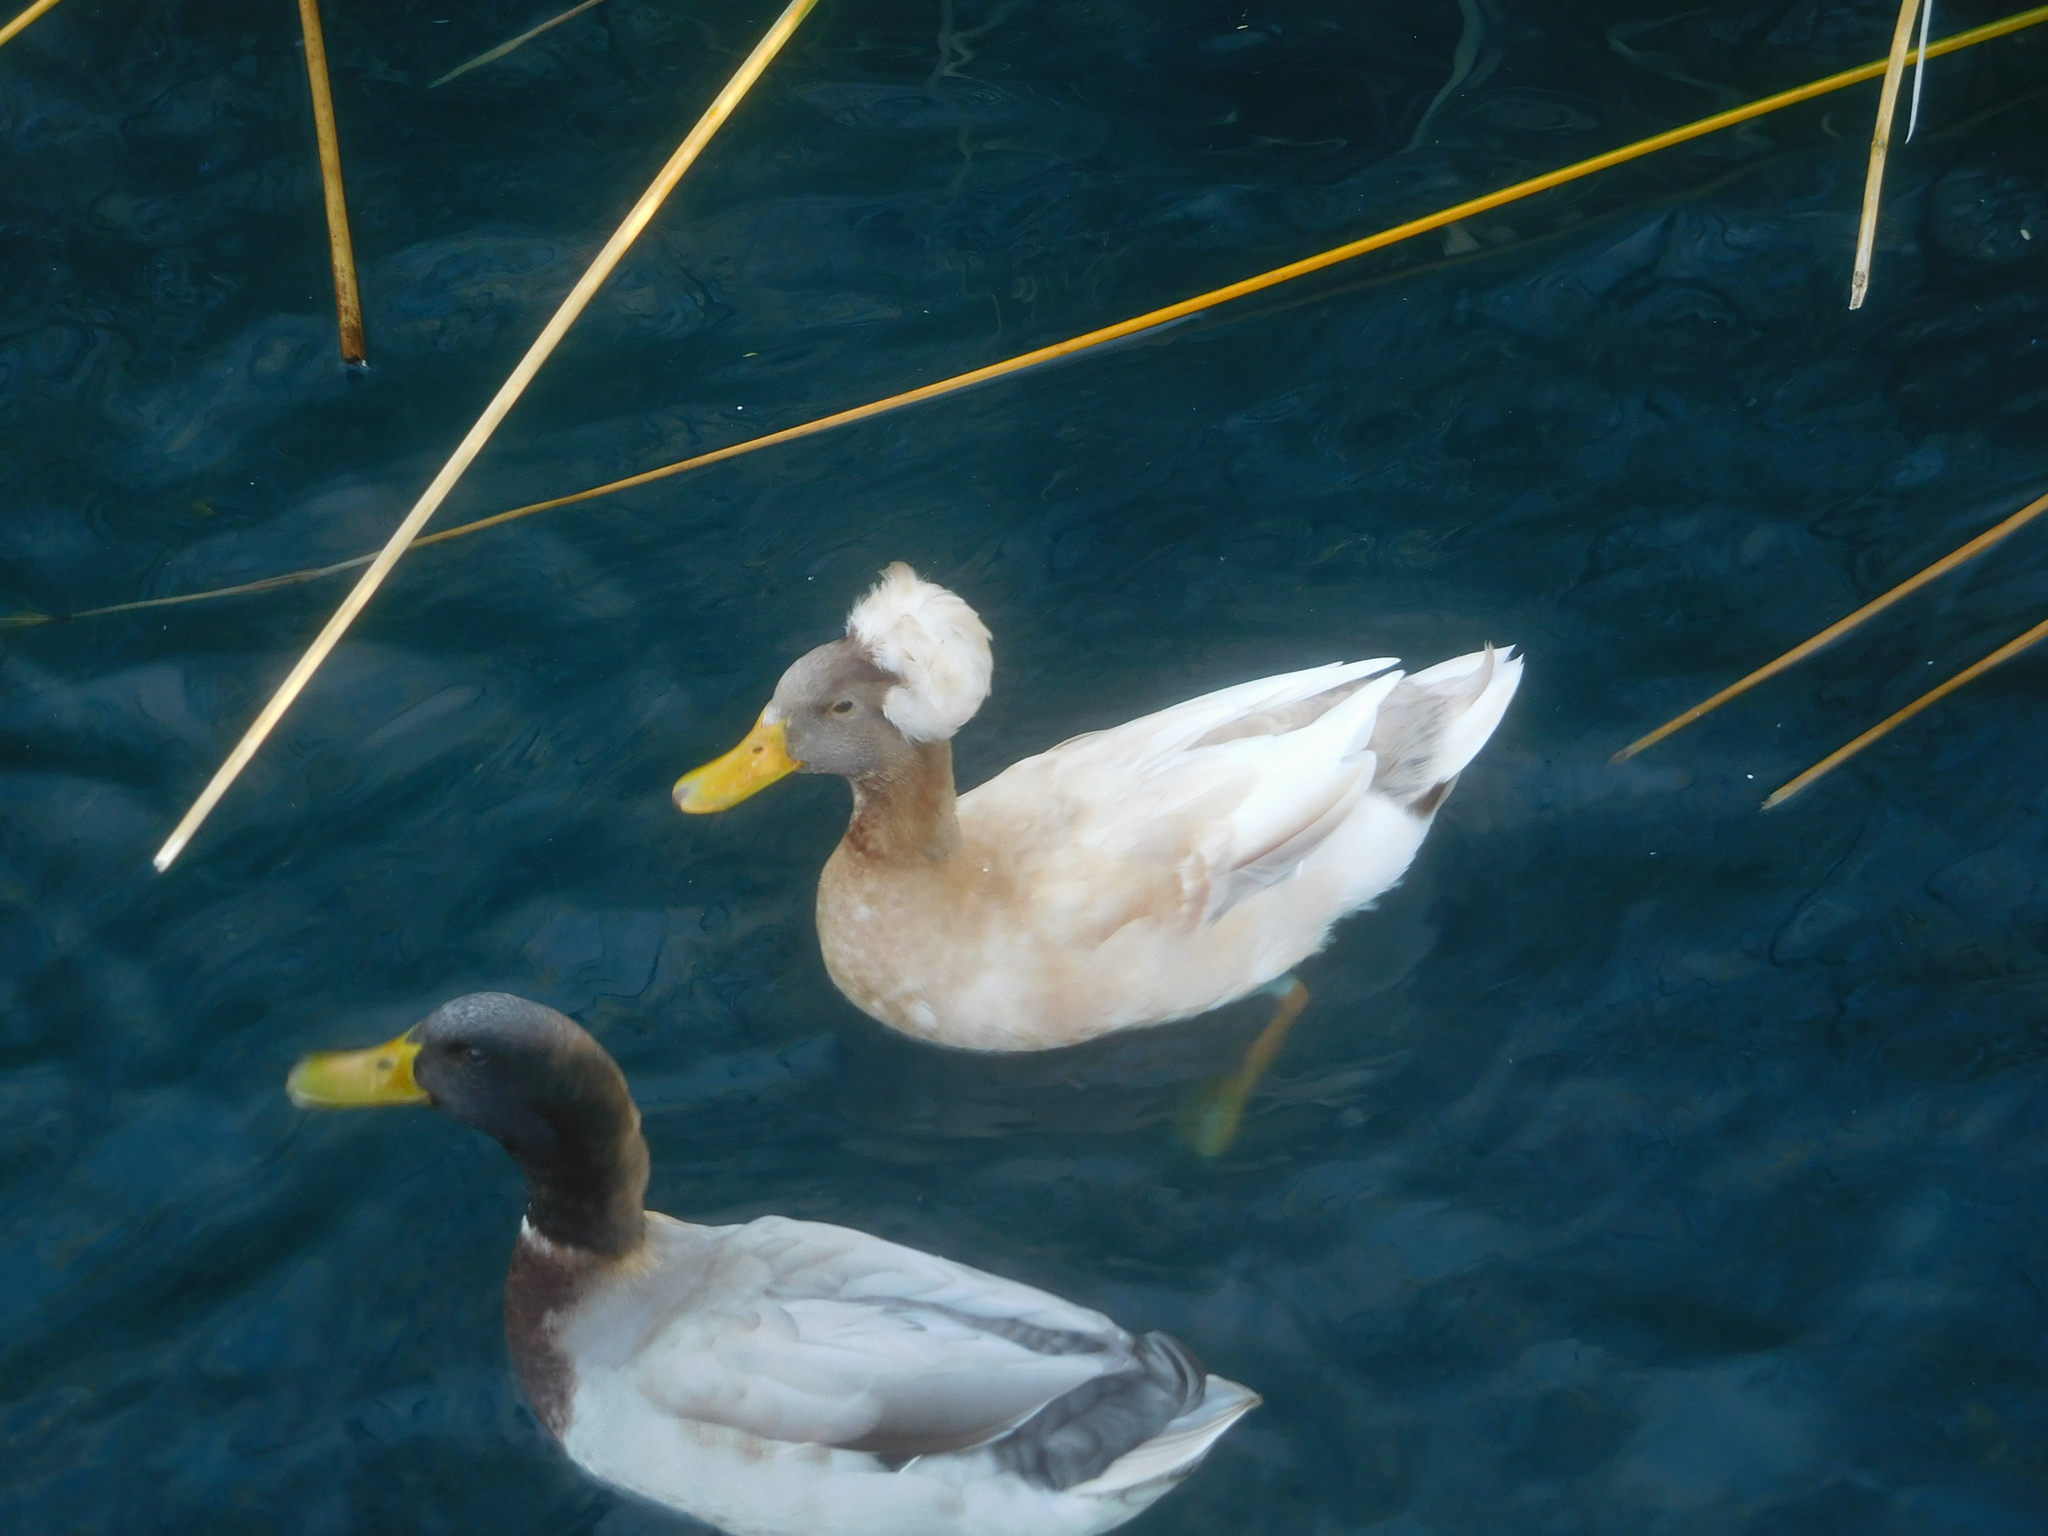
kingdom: Animalia
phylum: Chordata
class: Aves
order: Anseriformes
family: Anatidae
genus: Anas
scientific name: Anas platyrhynchos
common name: Mallard
